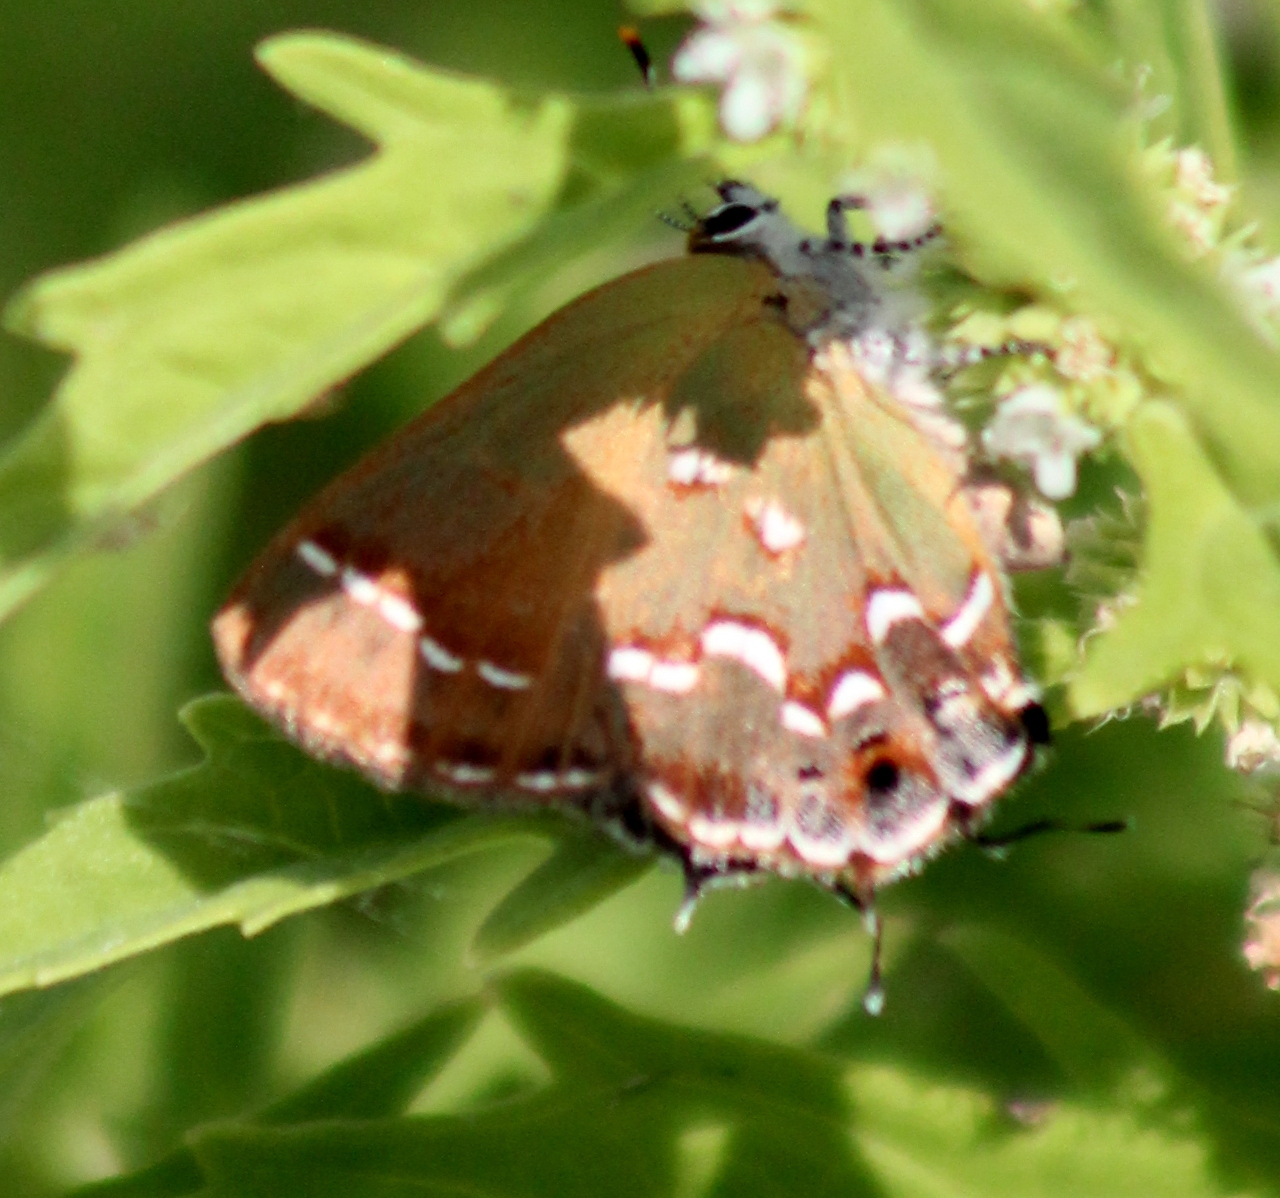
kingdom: Animalia
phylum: Arthropoda
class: Insecta
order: Lepidoptera
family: Lycaenidae
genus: Mitoura
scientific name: Mitoura gryneus
